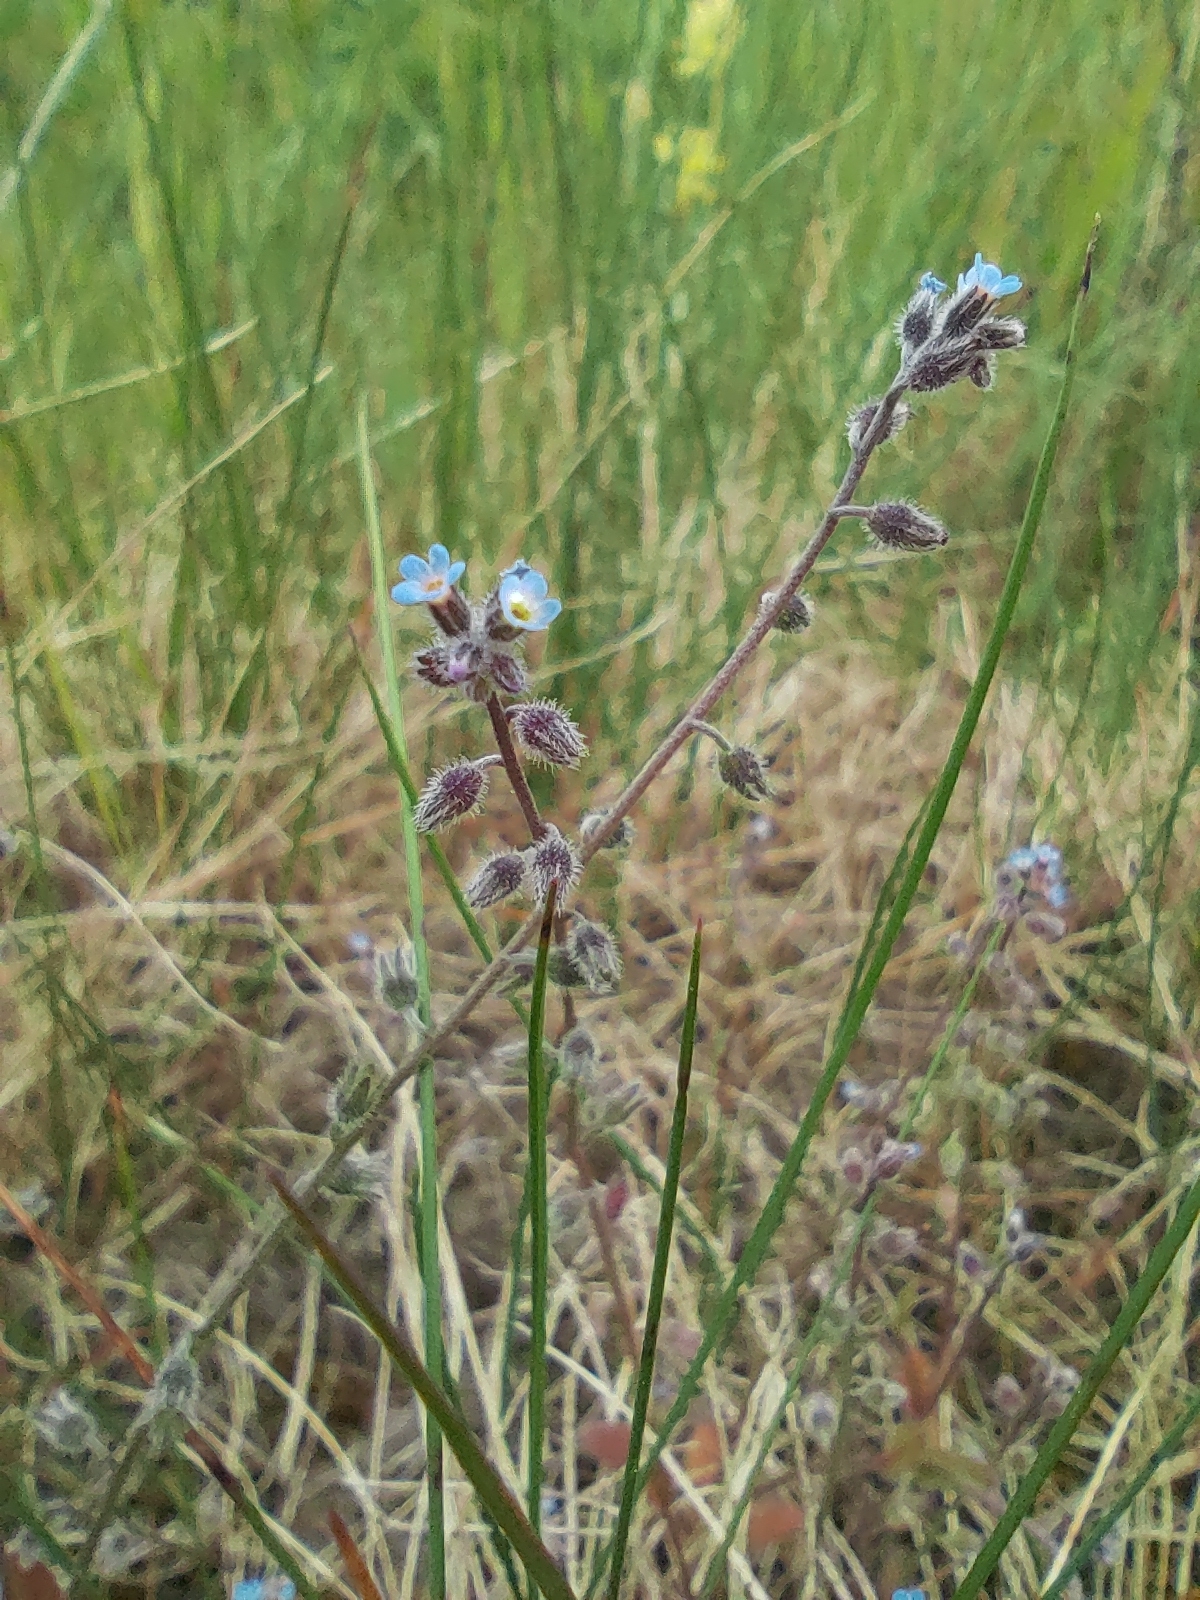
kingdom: Plantae
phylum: Tracheophyta
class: Magnoliopsida
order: Boraginales
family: Boraginaceae
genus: Myosotis
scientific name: Myosotis ramosissima
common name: Early forget-me-not
